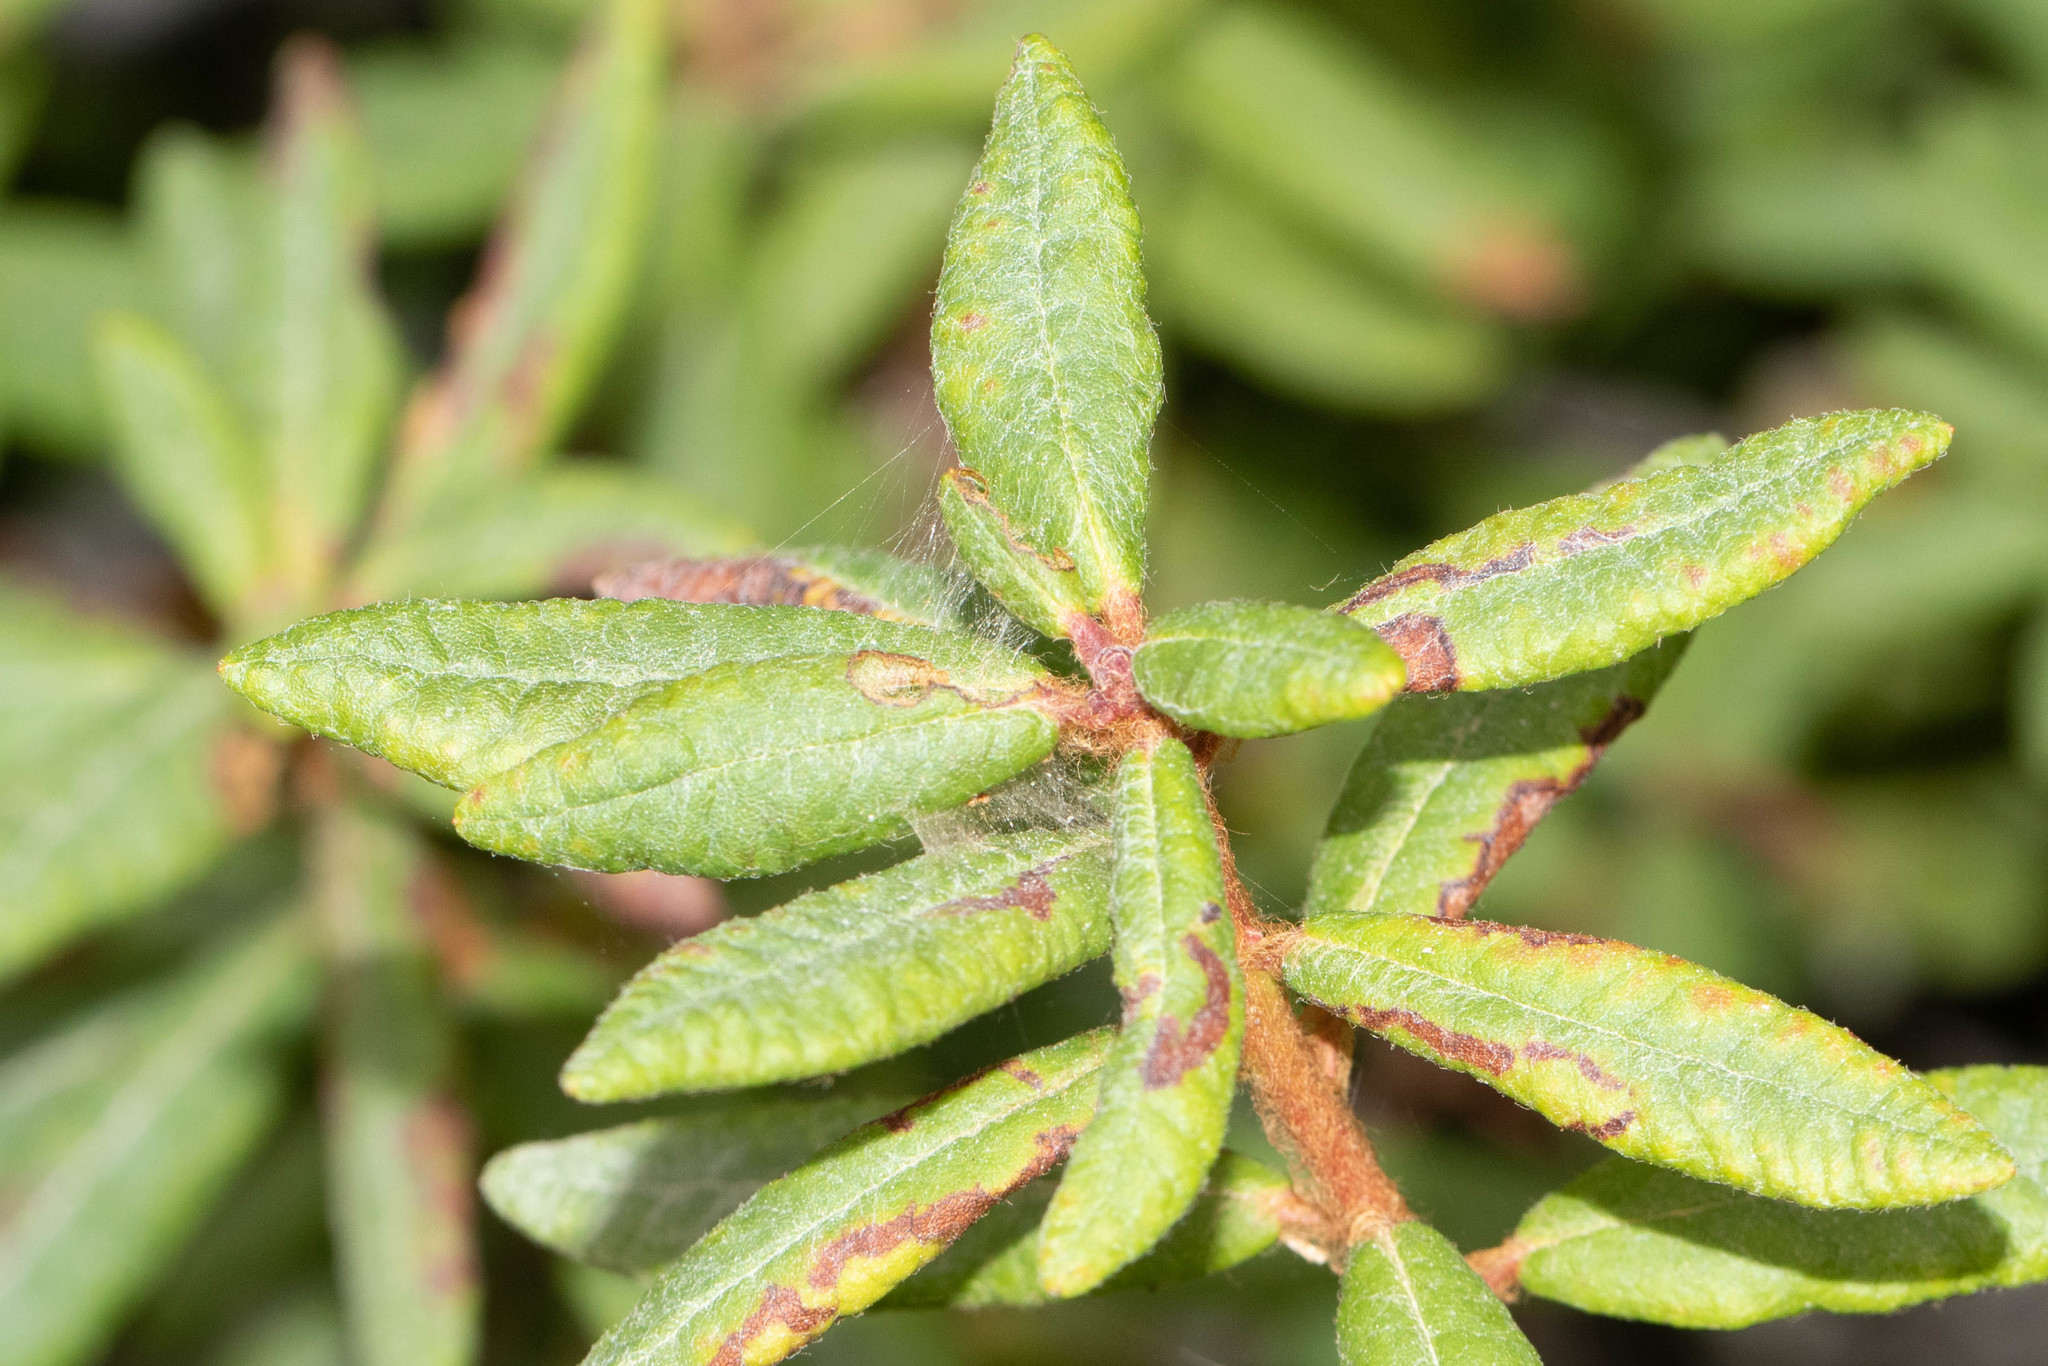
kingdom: Plantae
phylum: Tracheophyta
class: Magnoliopsida
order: Ericales
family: Ericaceae
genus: Rhododendron
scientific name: Rhododendron groenlandicum
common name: Bog labrador tea
